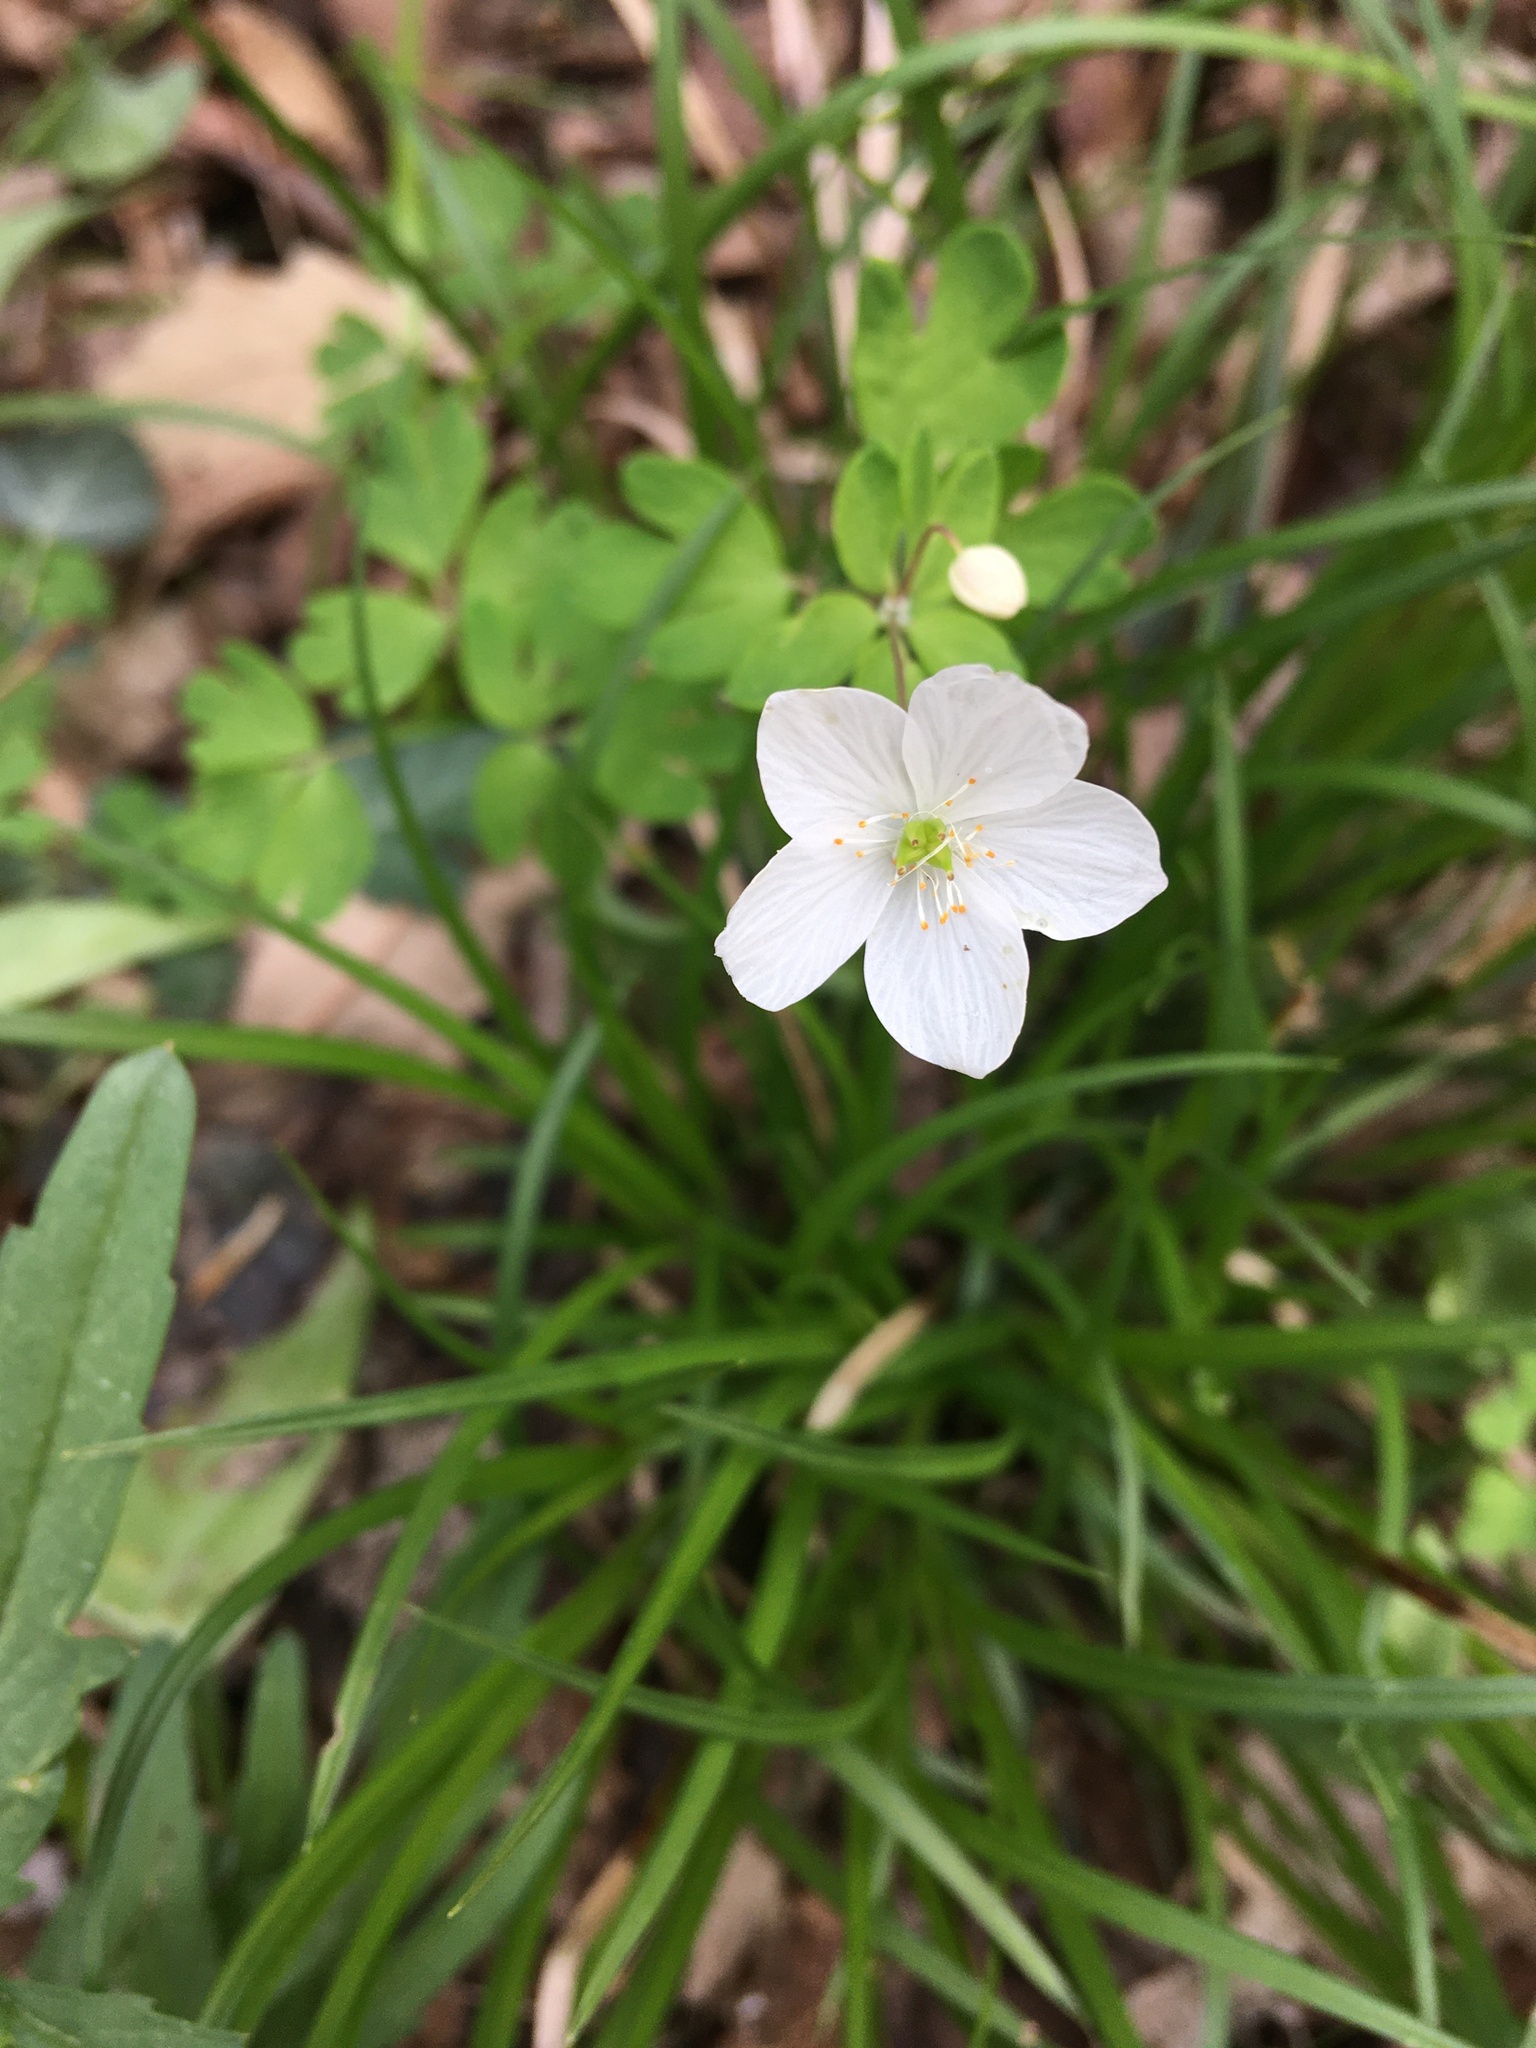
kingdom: Plantae
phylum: Tracheophyta
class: Magnoliopsida
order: Ranunculales
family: Ranunculaceae
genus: Enemion
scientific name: Enemion biternatum
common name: Eastern false rue-anemone
